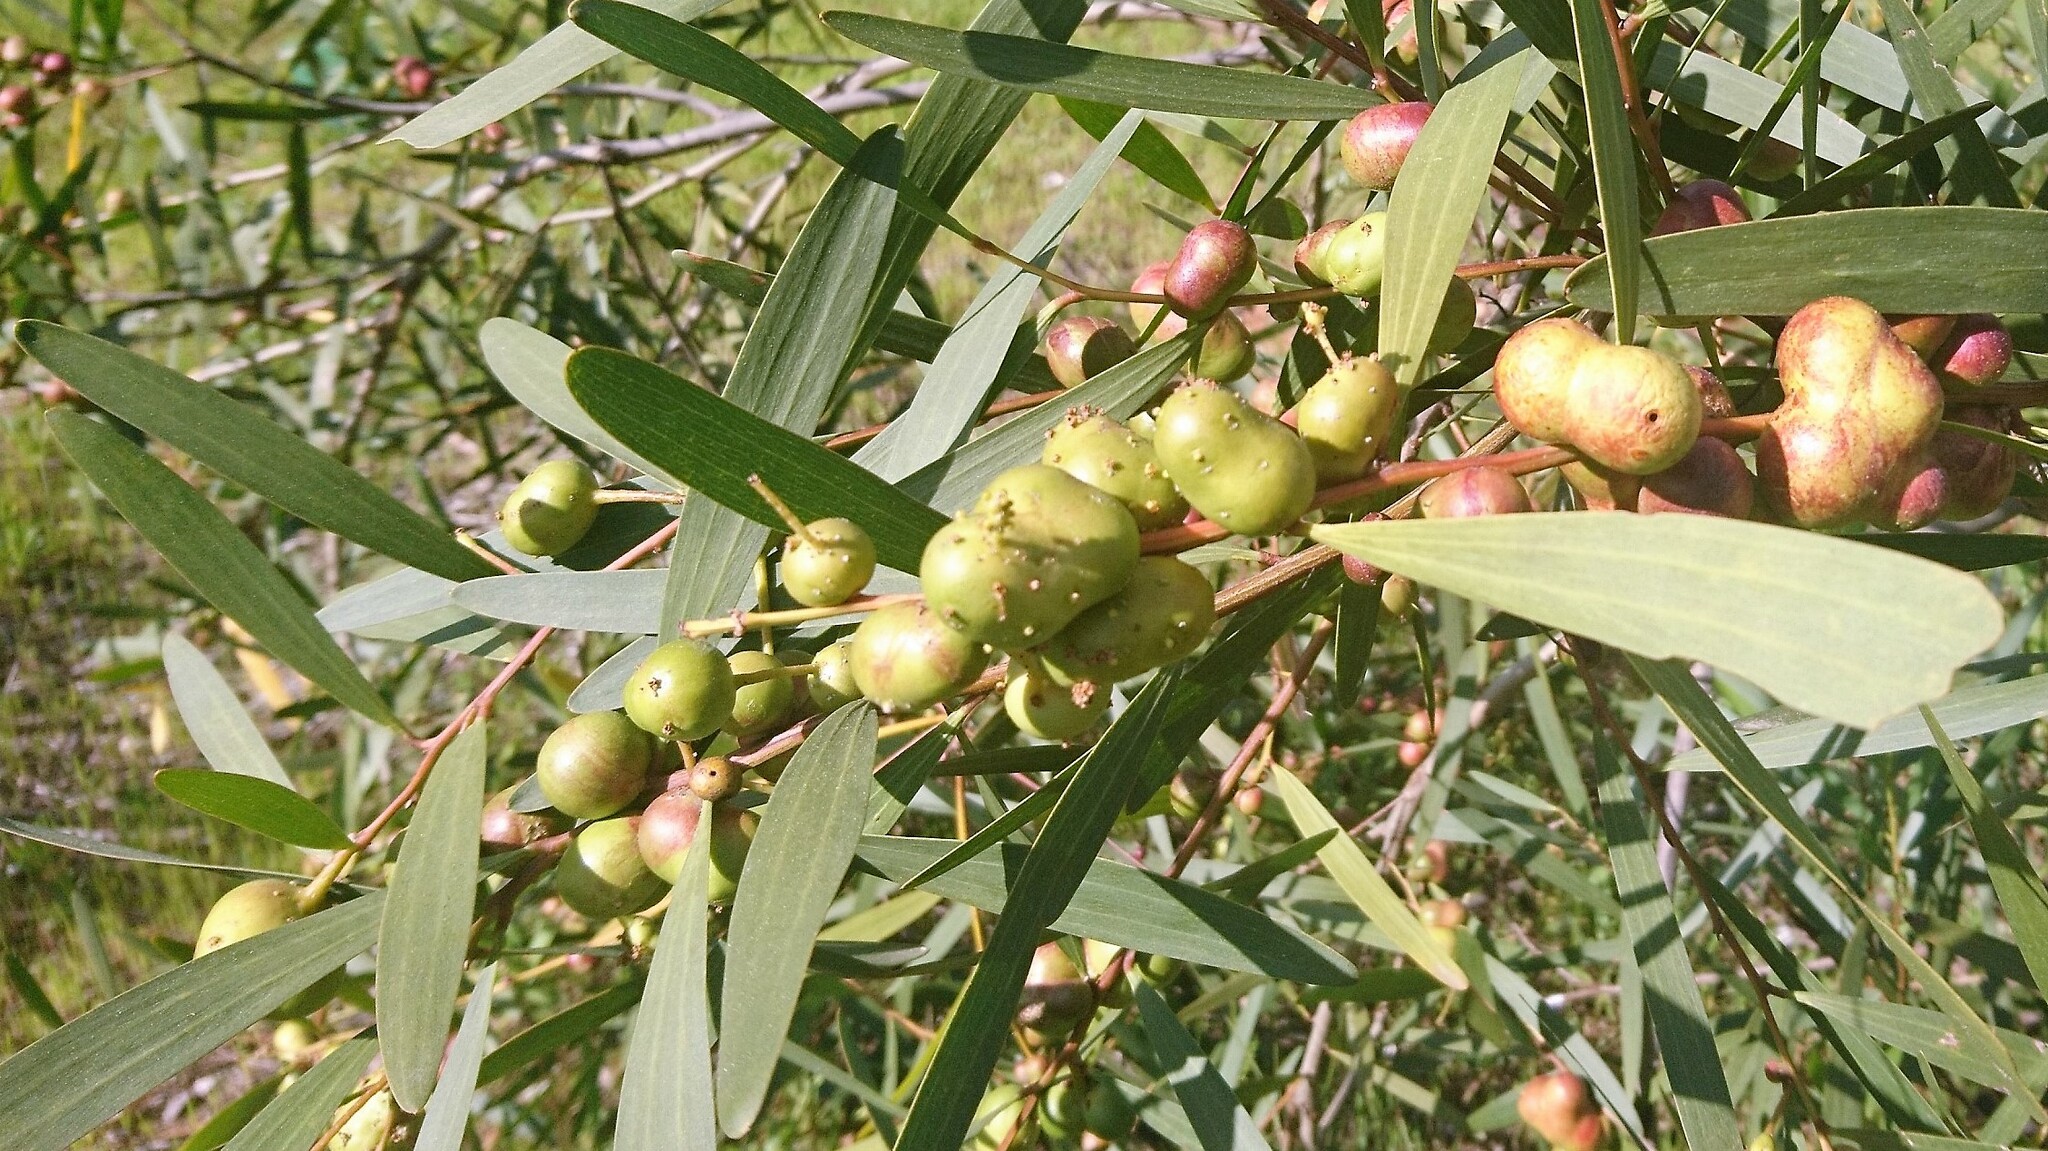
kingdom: Animalia
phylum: Arthropoda
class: Insecta
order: Hymenoptera
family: Pteromalidae
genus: Trichilogaster
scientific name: Trichilogaster acaciaelongifoliae
